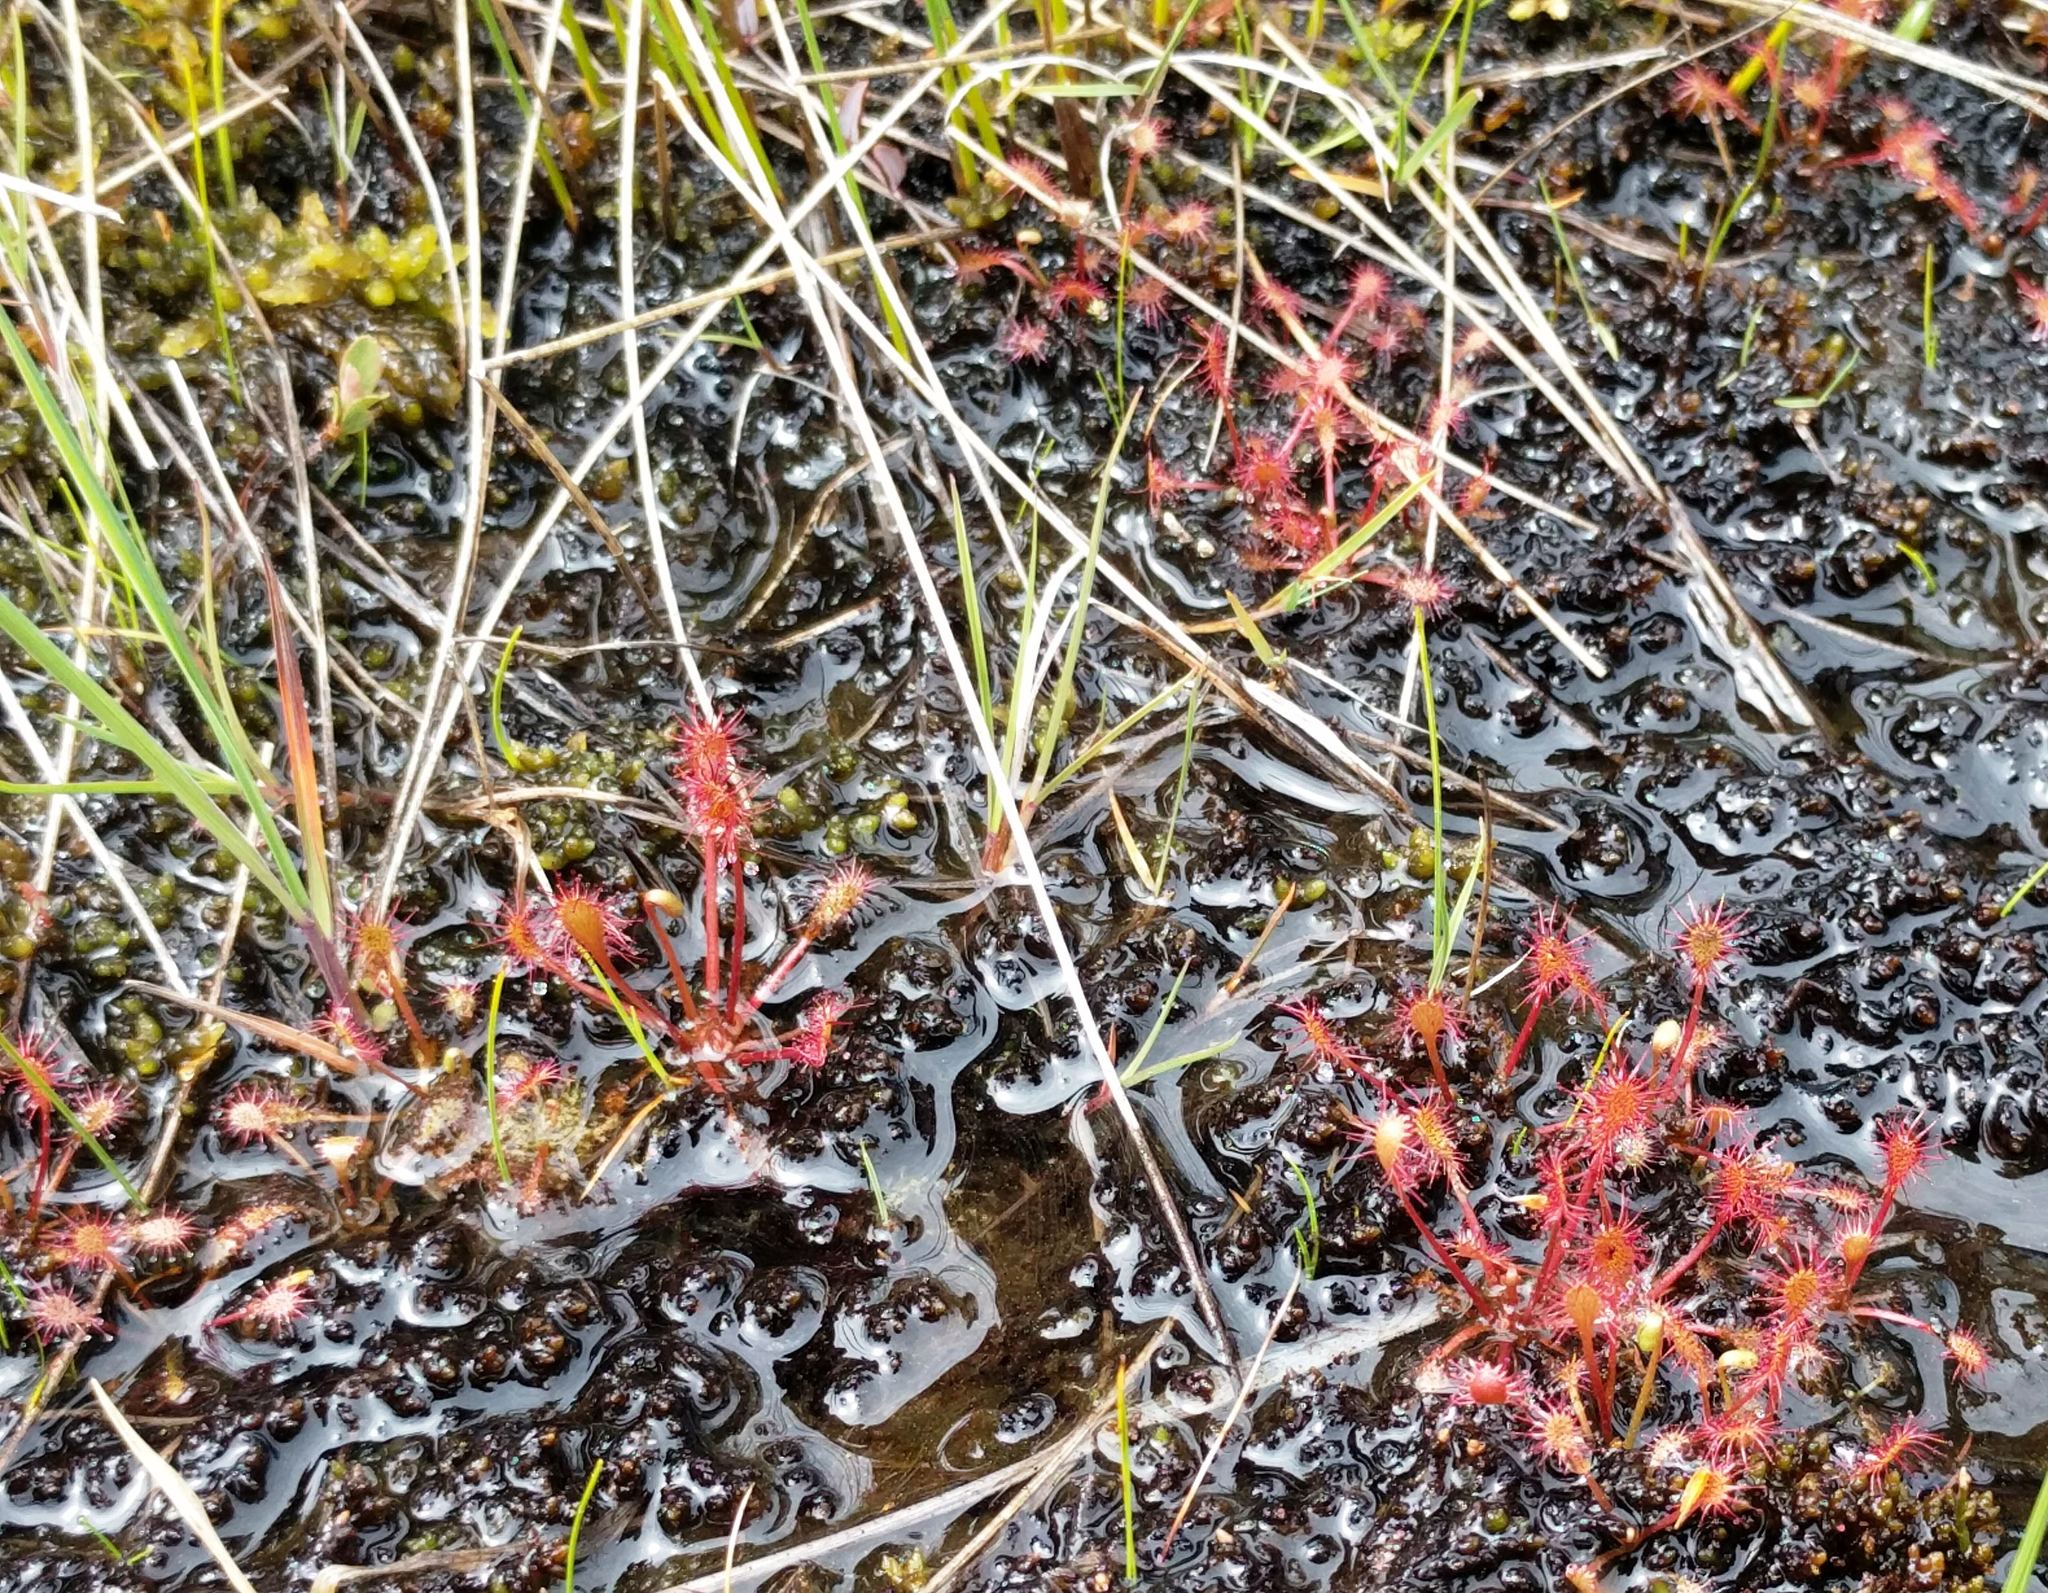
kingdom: Plantae
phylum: Tracheophyta
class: Magnoliopsida
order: Caryophyllales
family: Droseraceae
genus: Drosera
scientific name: Drosera intermedia
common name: Oblong-leaved sundew
